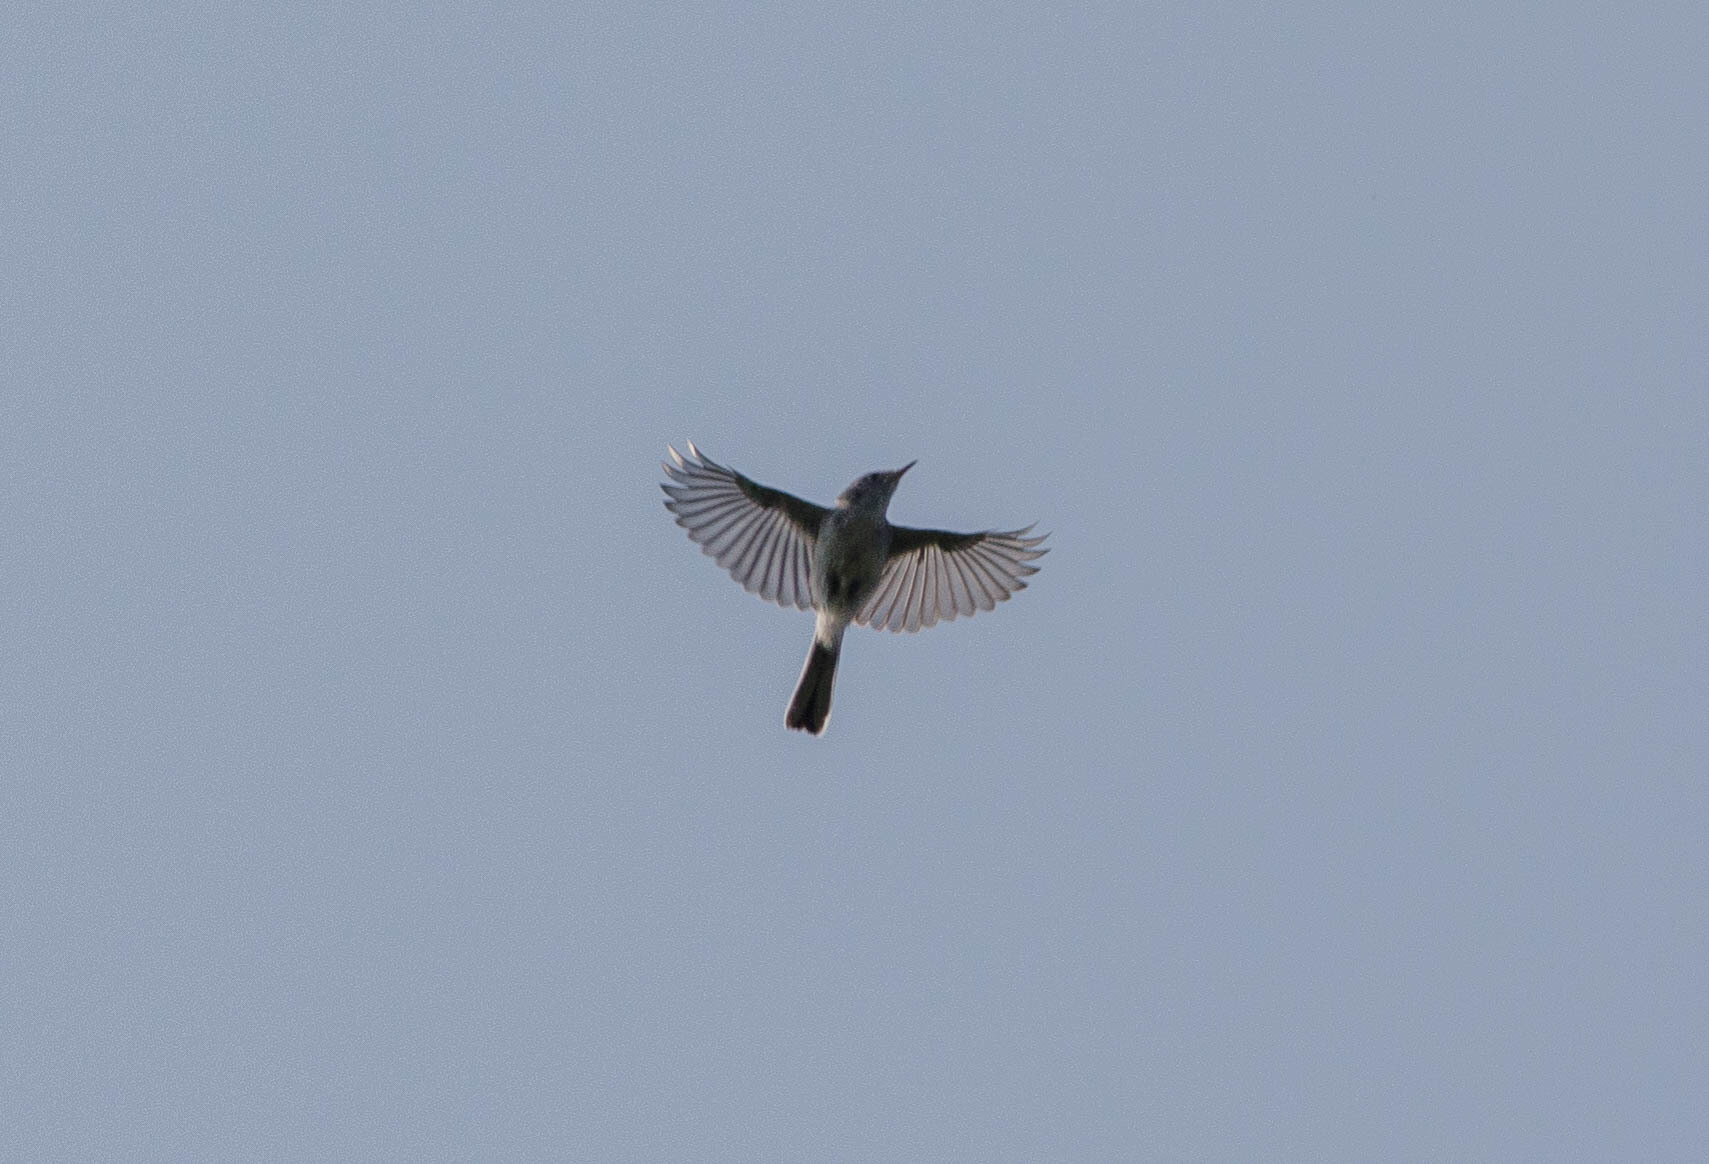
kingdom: Animalia
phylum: Chordata
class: Aves
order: Passeriformes
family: Polioptilidae
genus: Polioptila
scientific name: Polioptila caerulea
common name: Blue-gray gnatcatcher
